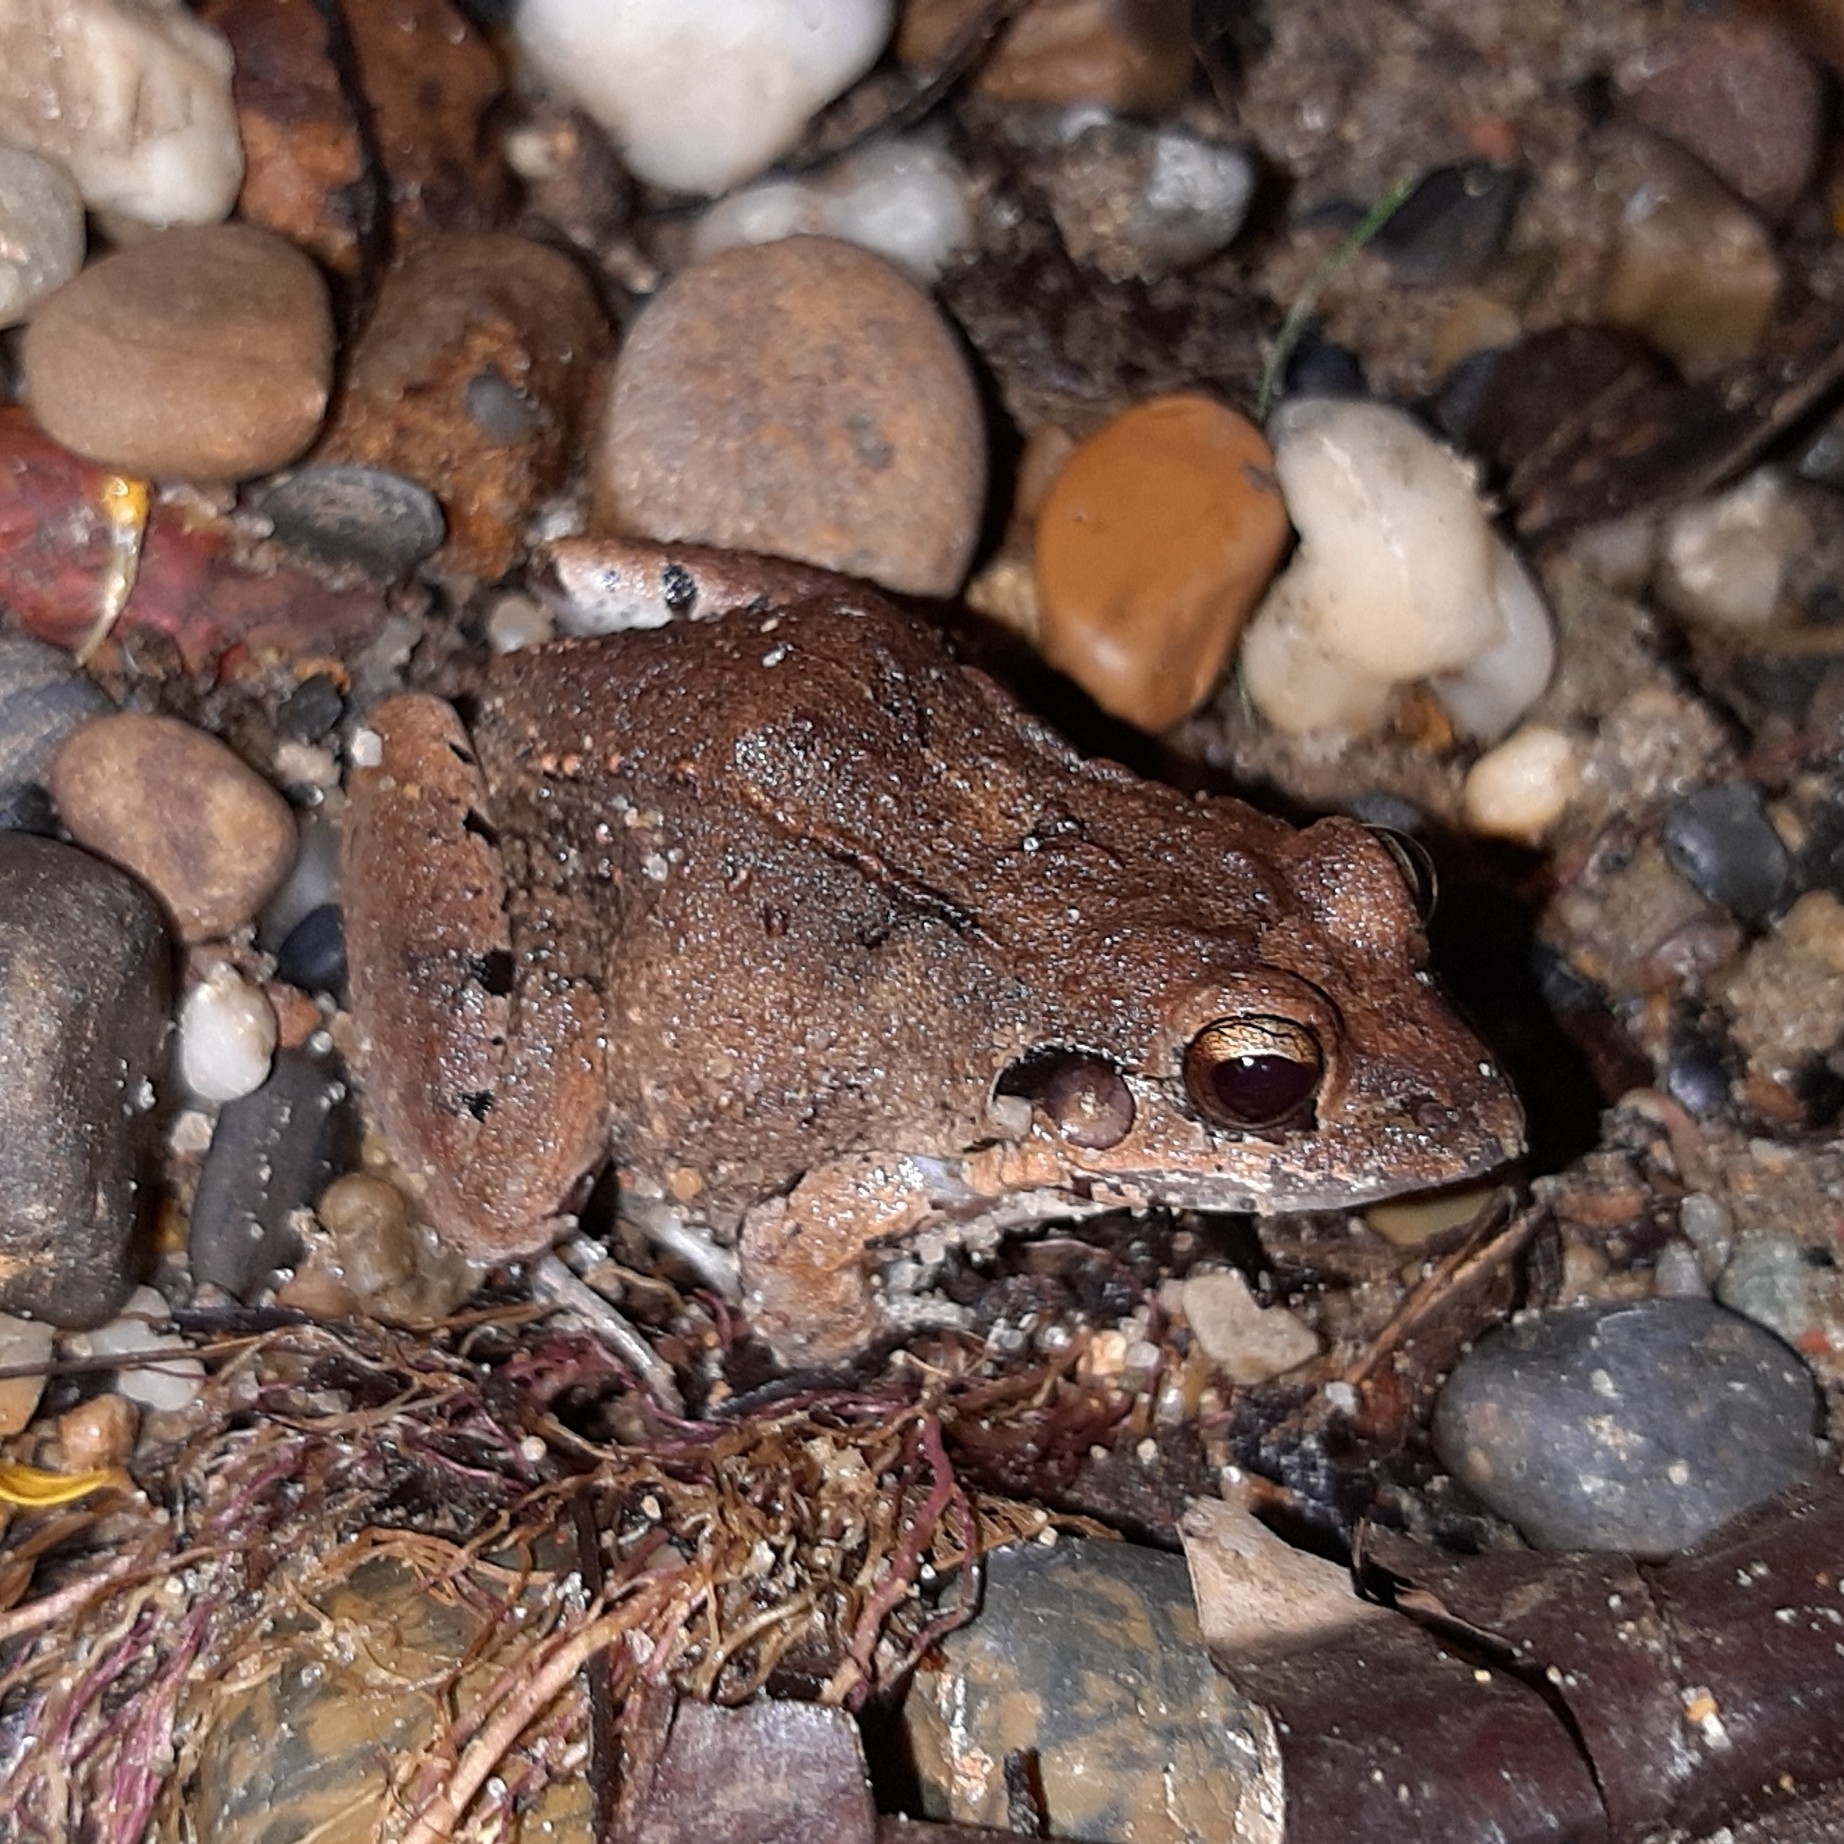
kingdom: Animalia
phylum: Chordata
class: Amphibia
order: Anura
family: Leptodactylidae
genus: Leptodactylus
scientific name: Leptodactylus poecilochilus
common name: Turbo white-lipped frog
